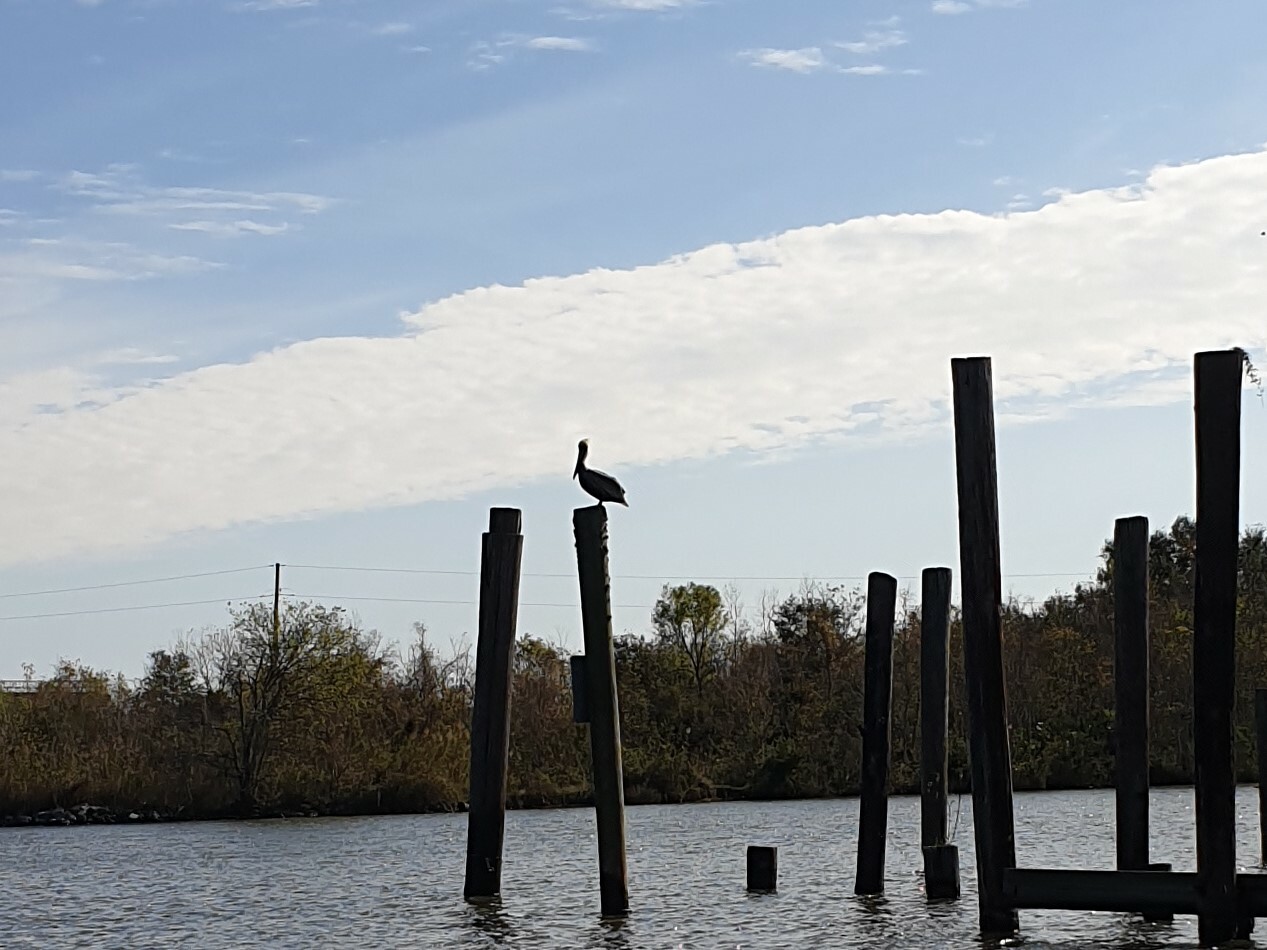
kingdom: Animalia
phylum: Chordata
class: Aves
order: Pelecaniformes
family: Pelecanidae
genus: Pelecanus
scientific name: Pelecanus occidentalis
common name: Brown pelican
